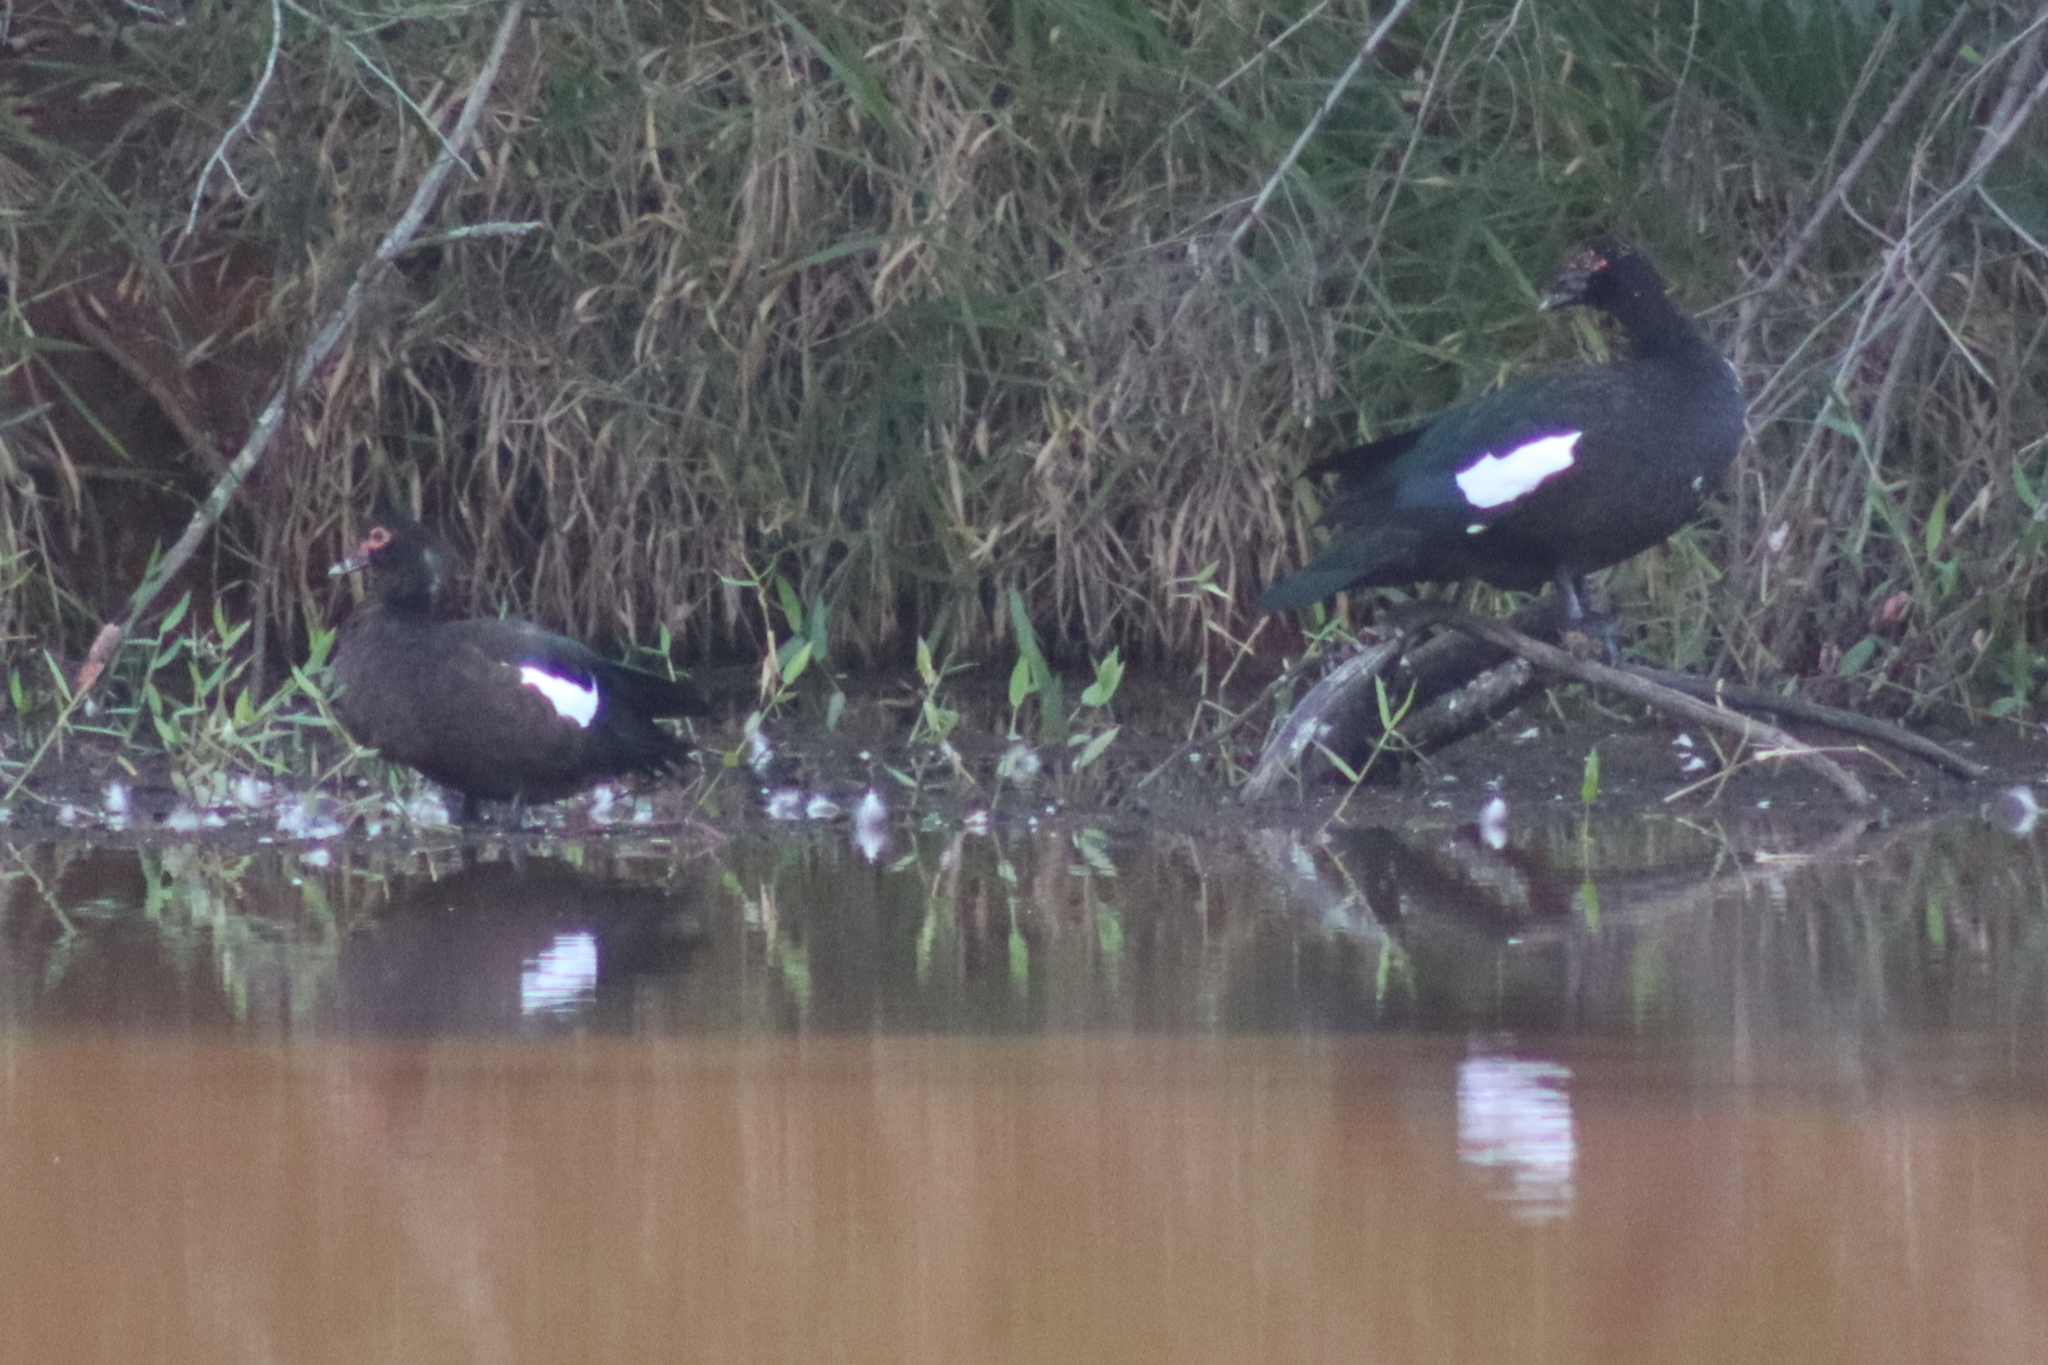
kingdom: Animalia
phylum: Chordata
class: Aves
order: Anseriformes
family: Anatidae
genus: Cairina
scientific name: Cairina moschata
